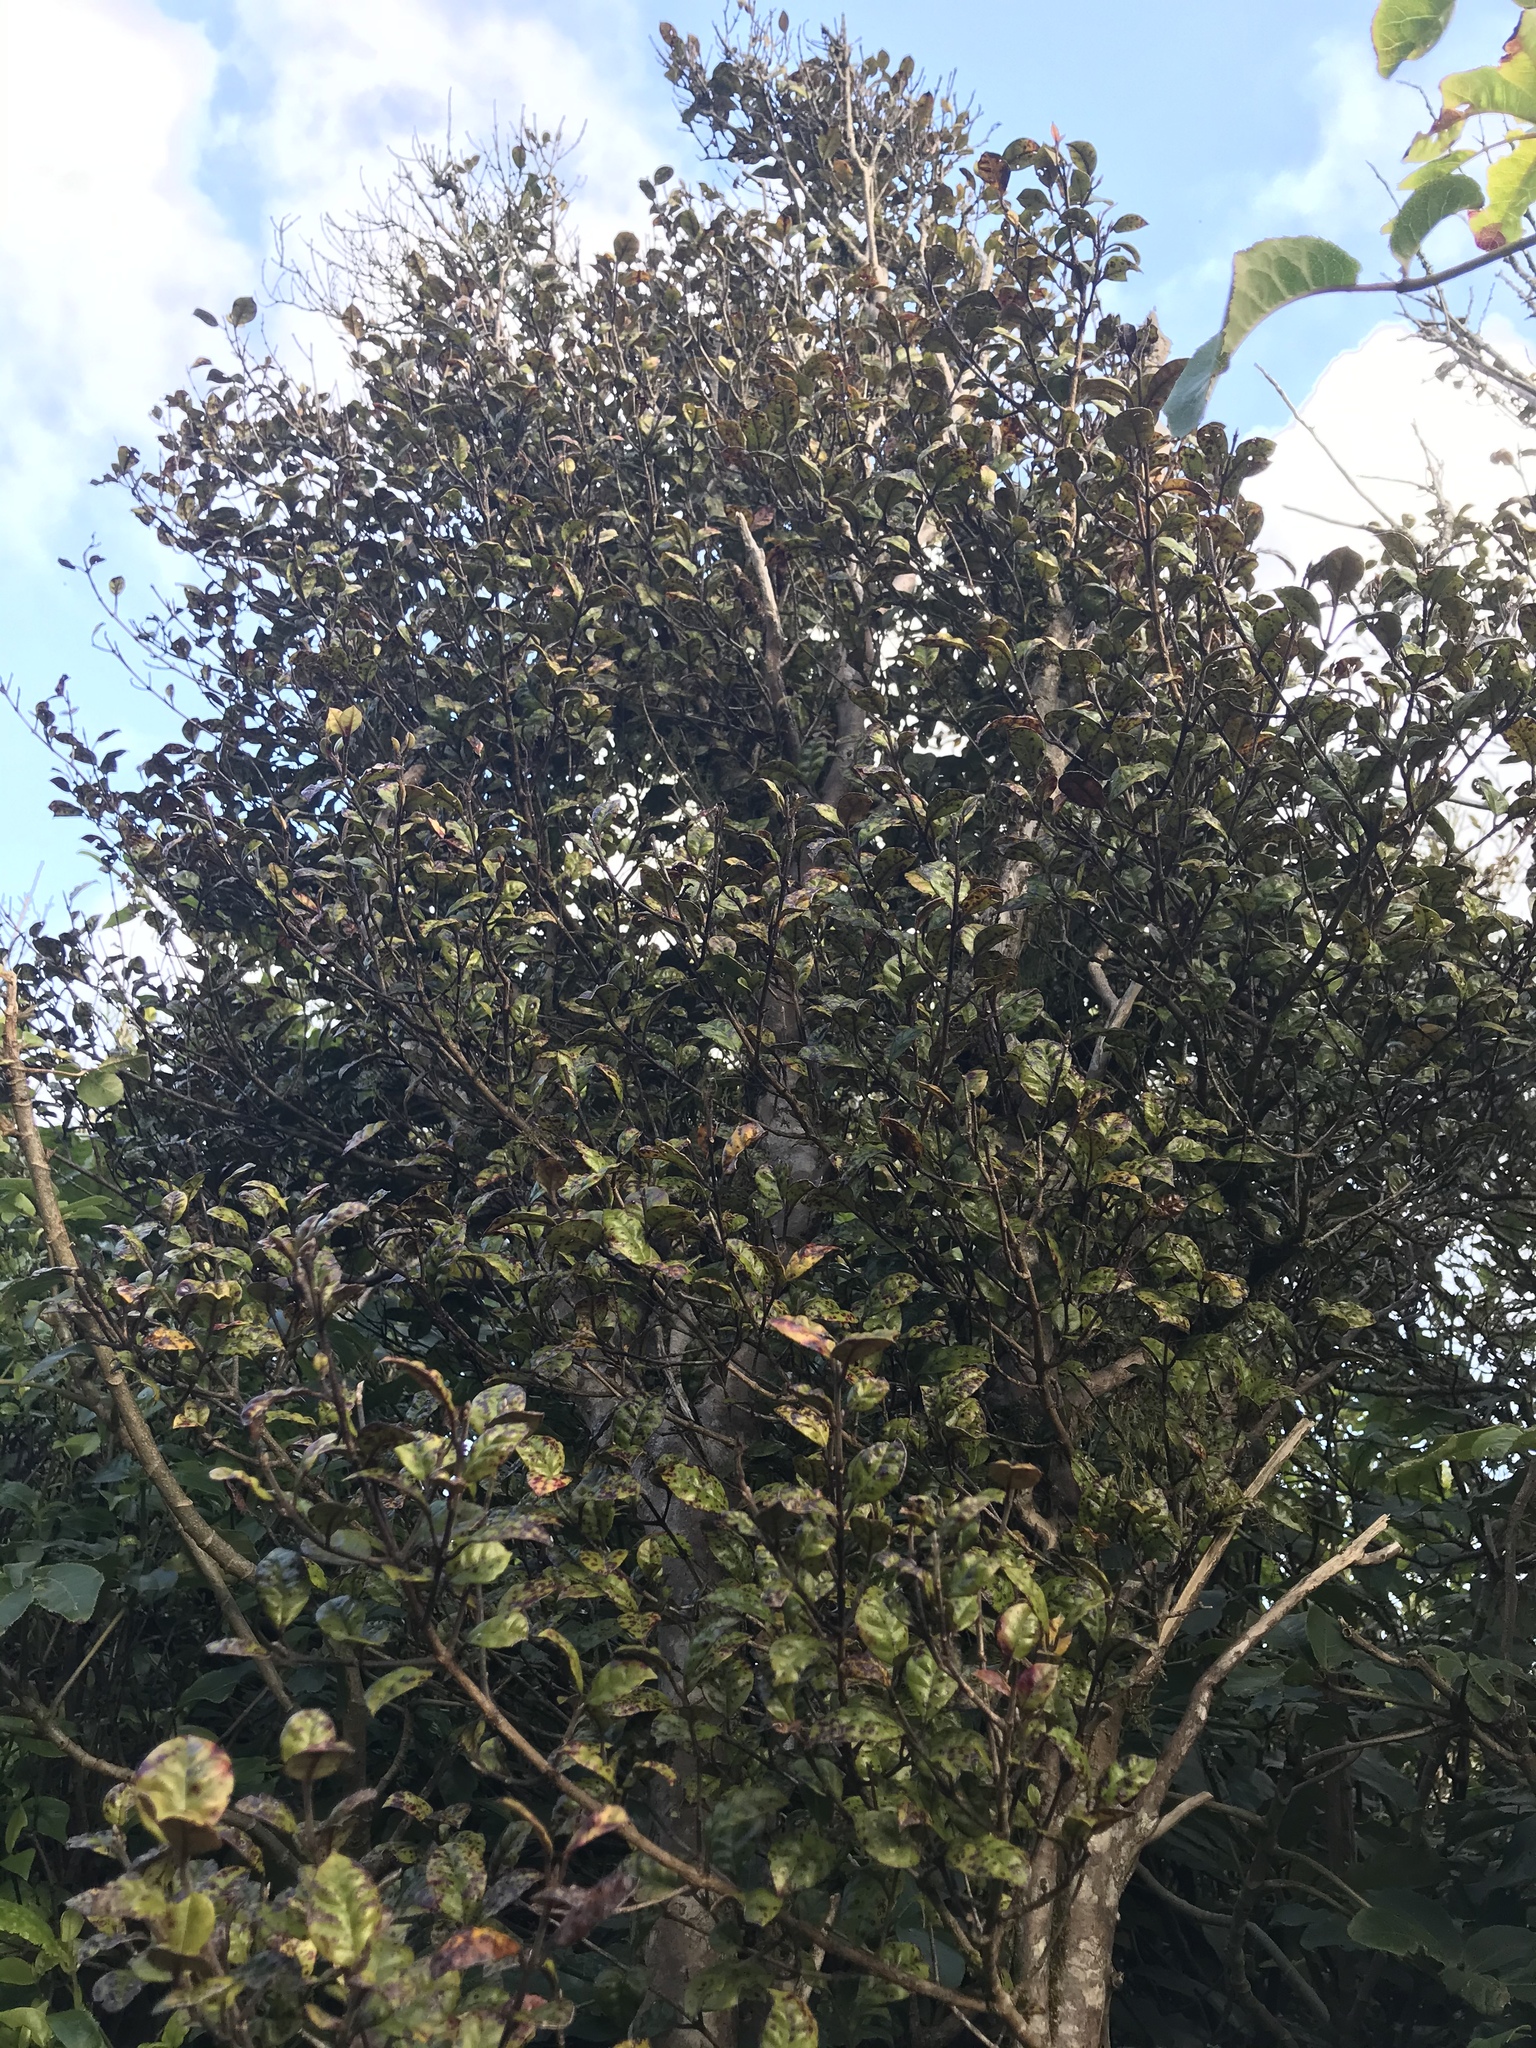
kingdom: Plantae
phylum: Tracheophyta
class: Magnoliopsida
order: Myrtales
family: Myrtaceae
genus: Lophomyrtus
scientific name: Lophomyrtus bullata
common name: Rama rama
